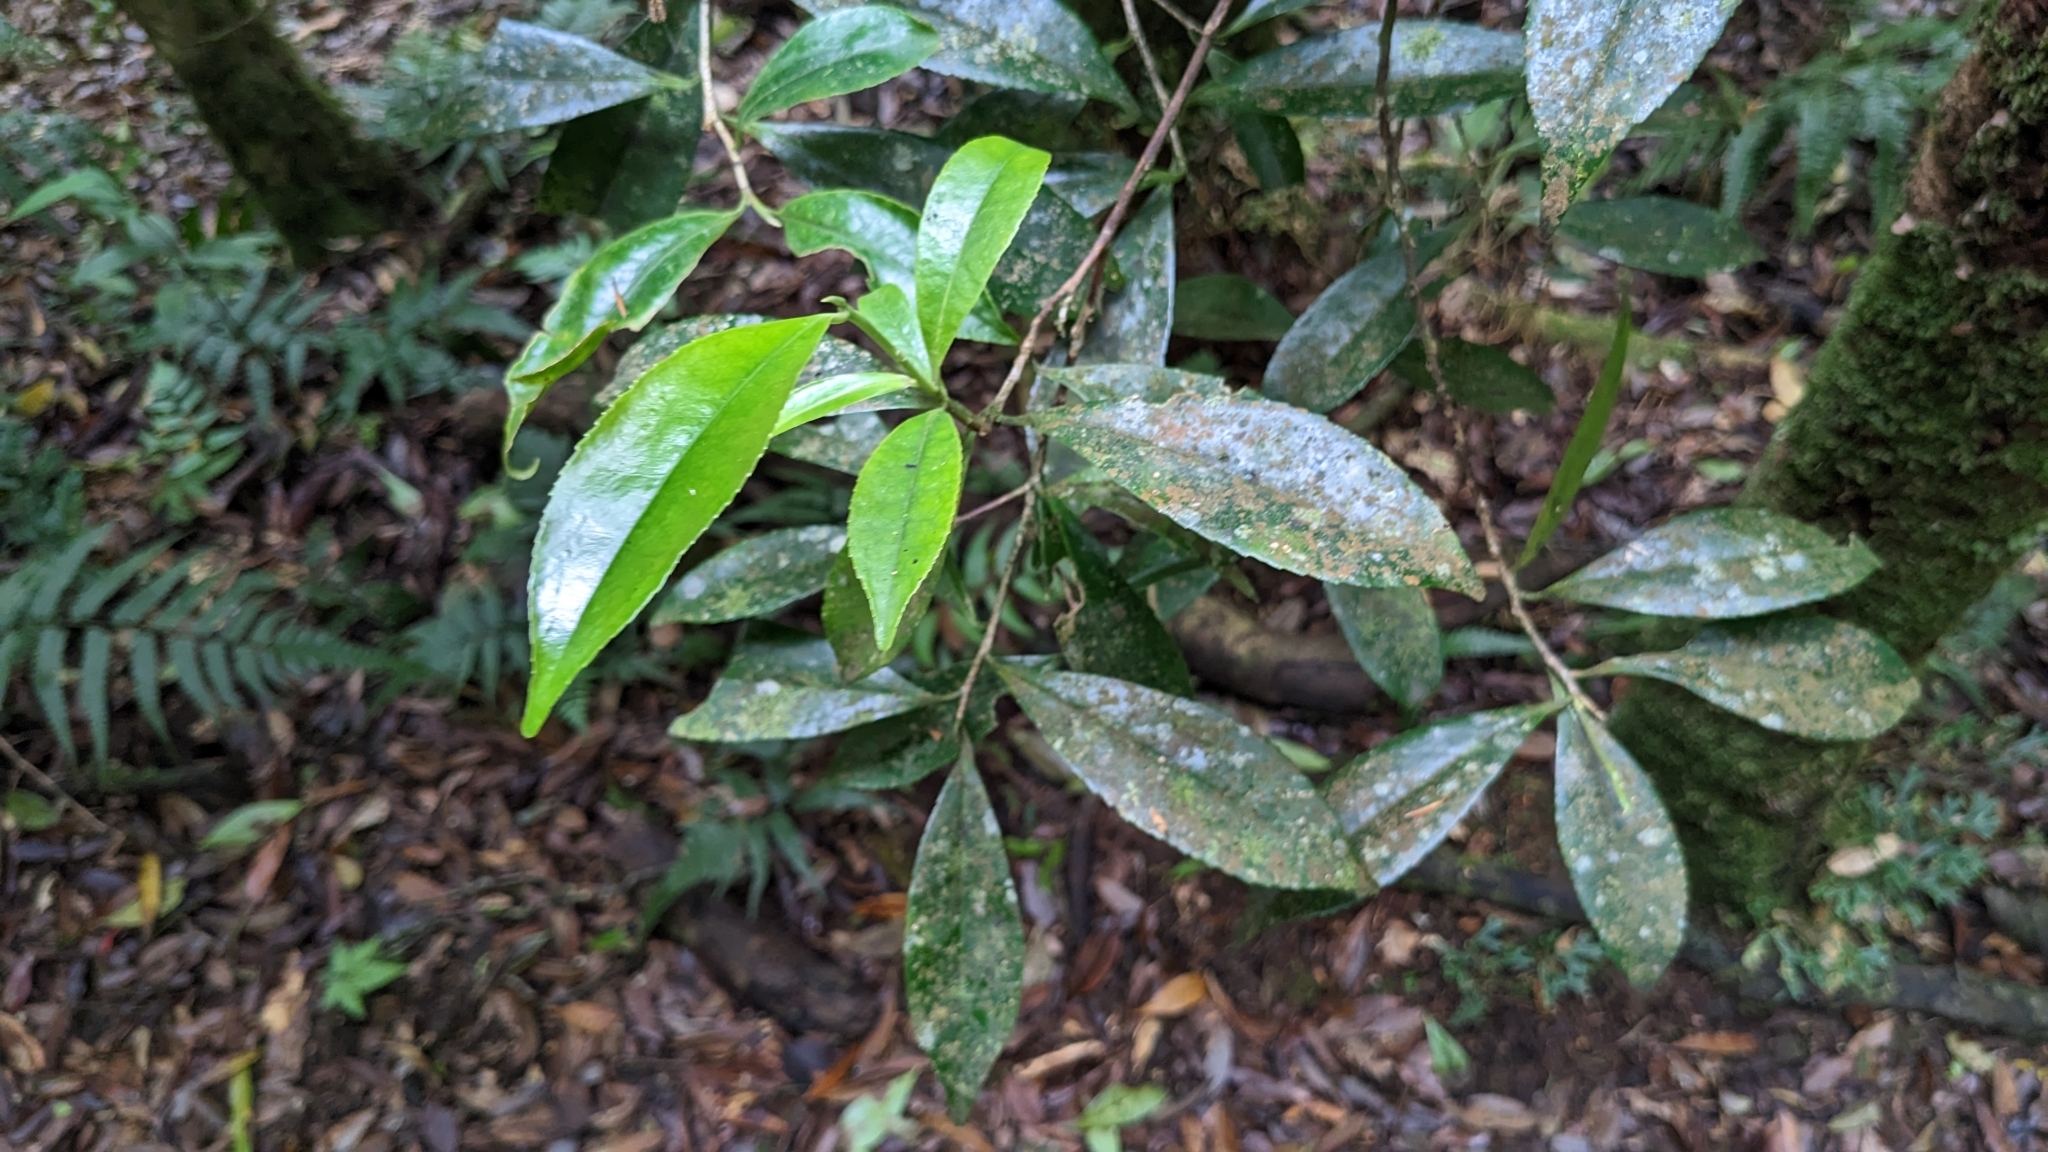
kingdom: Plantae
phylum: Tracheophyta
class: Magnoliopsida
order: Ericales
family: Theaceae
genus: Pyrenaria
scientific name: Pyrenaria microcarpa
